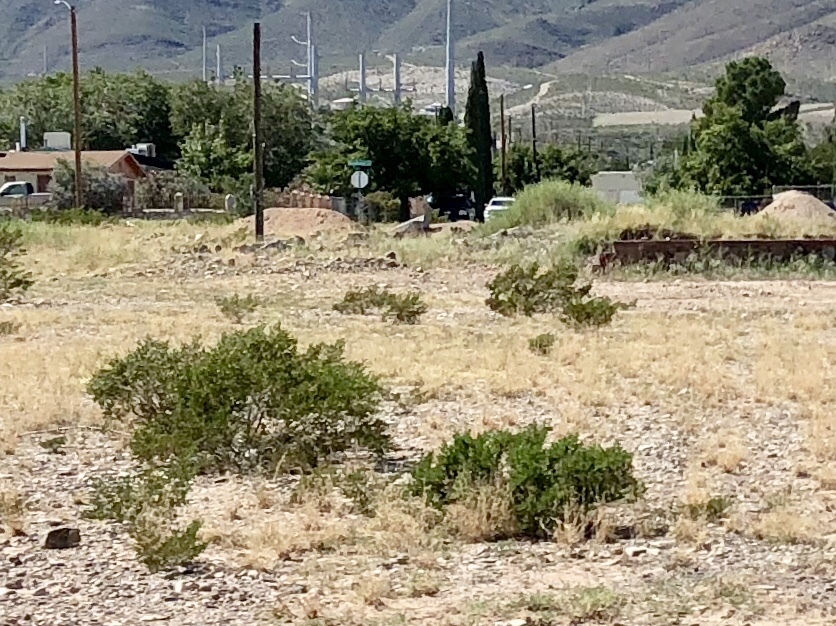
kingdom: Plantae
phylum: Tracheophyta
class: Magnoliopsida
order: Zygophyllales
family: Zygophyllaceae
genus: Larrea
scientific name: Larrea tridentata
